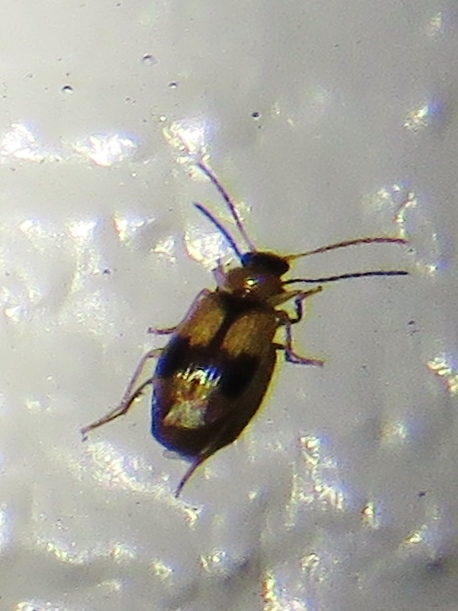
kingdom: Animalia
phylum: Arthropoda
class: Insecta
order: Coleoptera
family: Carabidae
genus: Lebia
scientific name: Lebia esurialis
